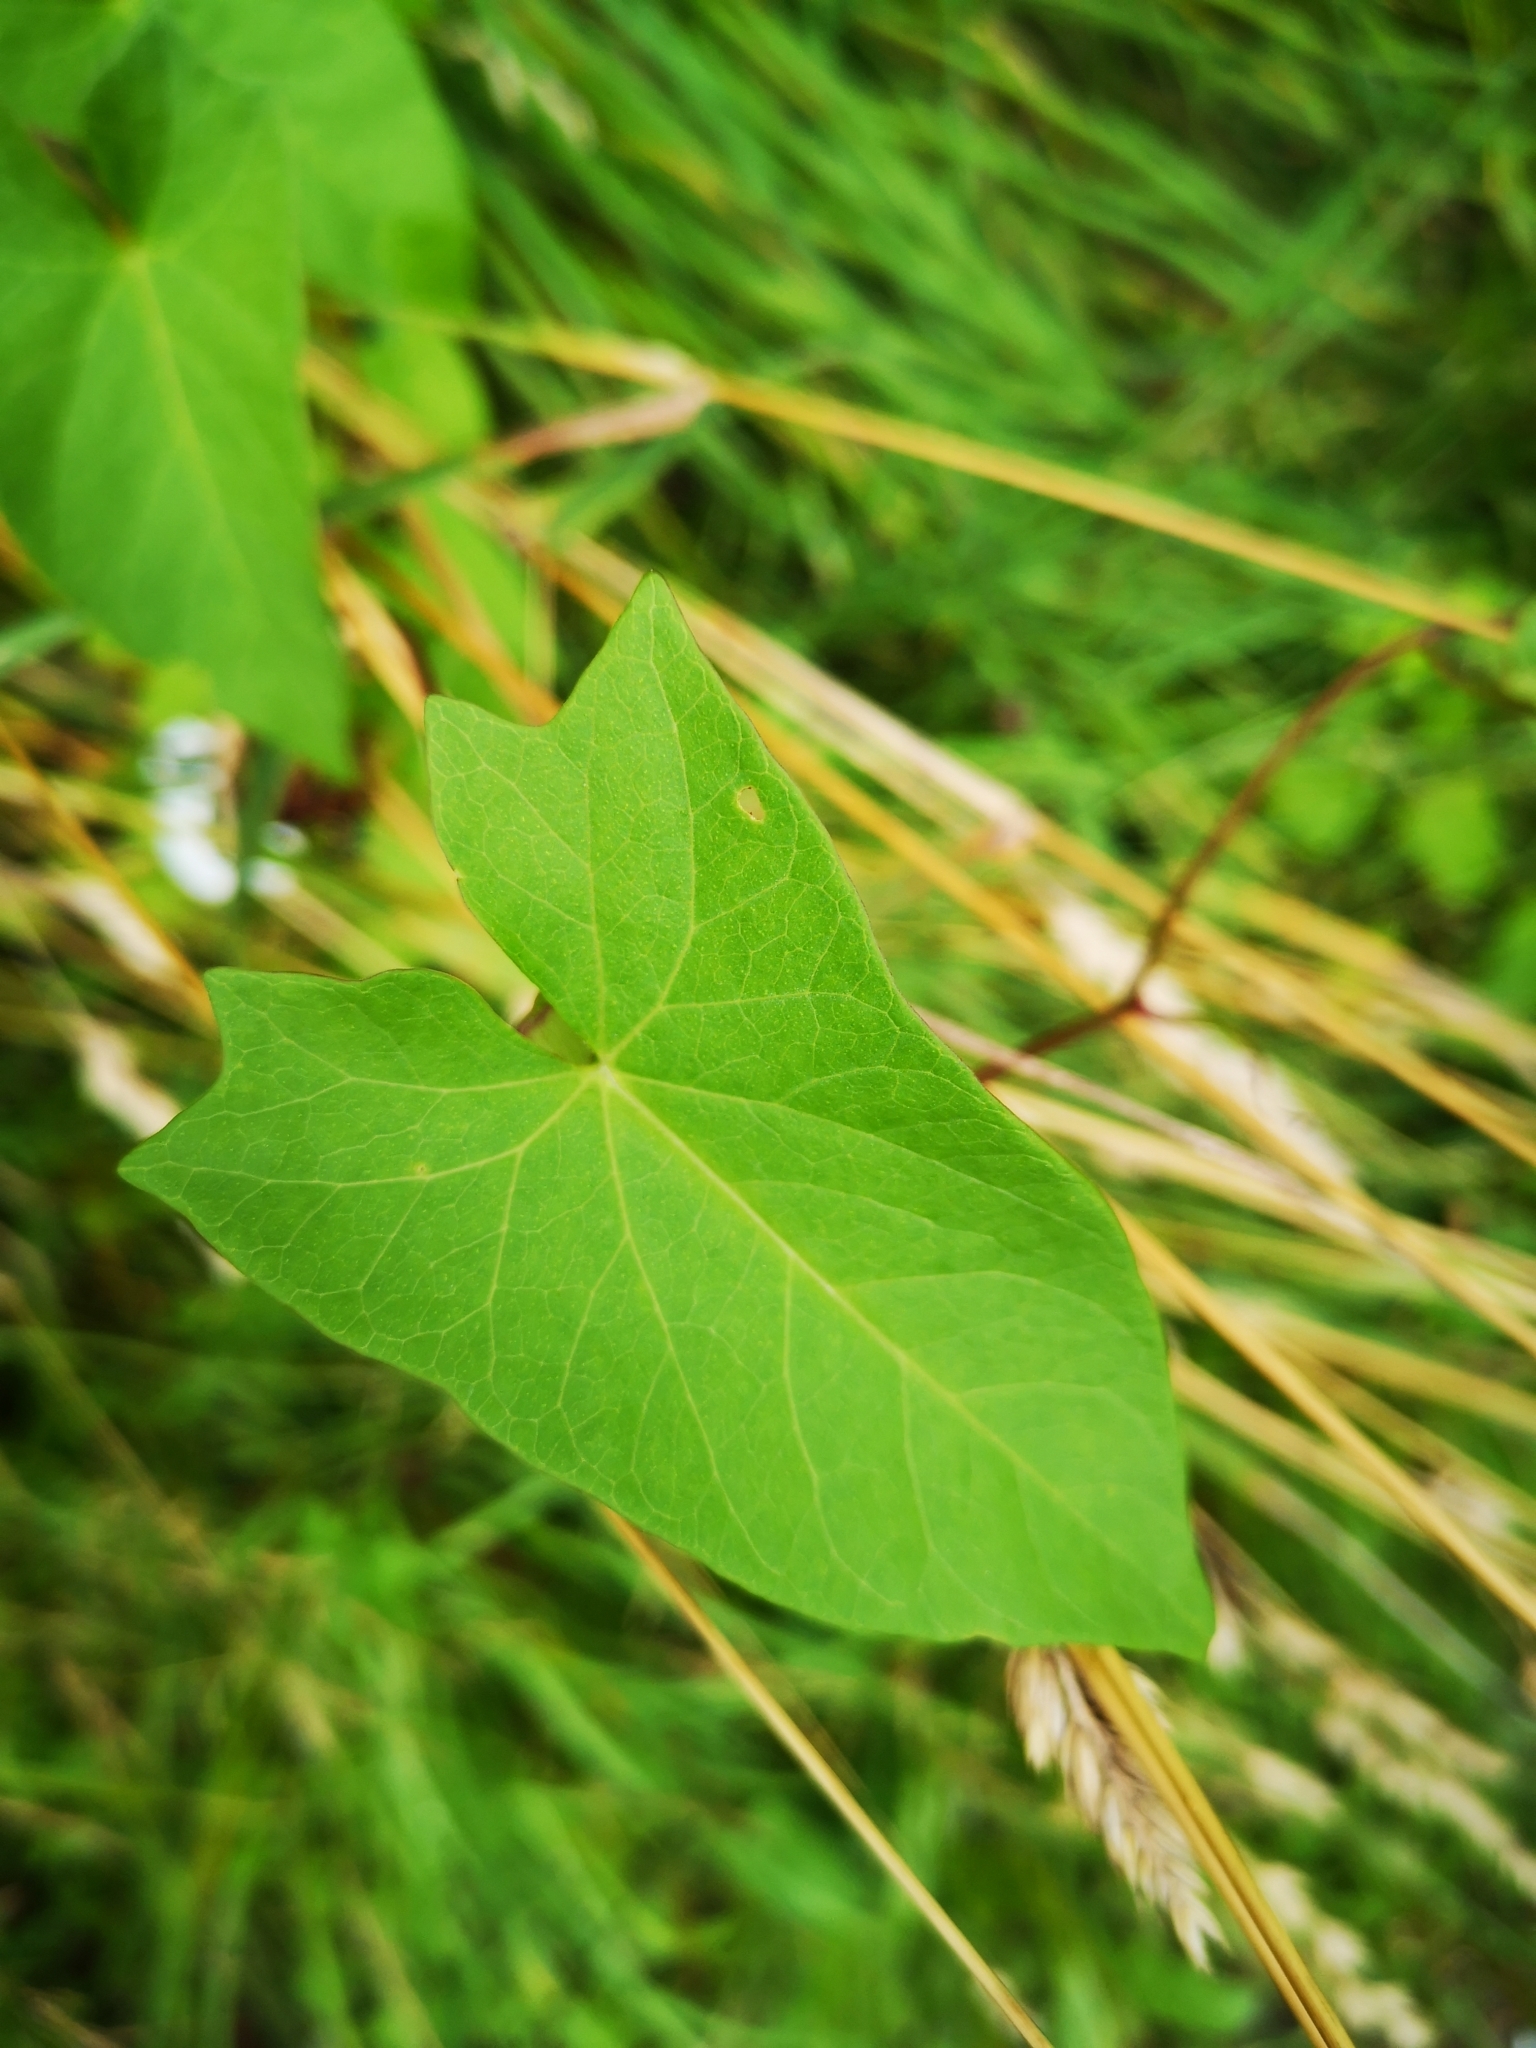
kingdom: Plantae
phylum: Tracheophyta
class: Magnoliopsida
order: Solanales
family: Convolvulaceae
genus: Calystegia
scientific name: Calystegia sepium
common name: Hedge bindweed
